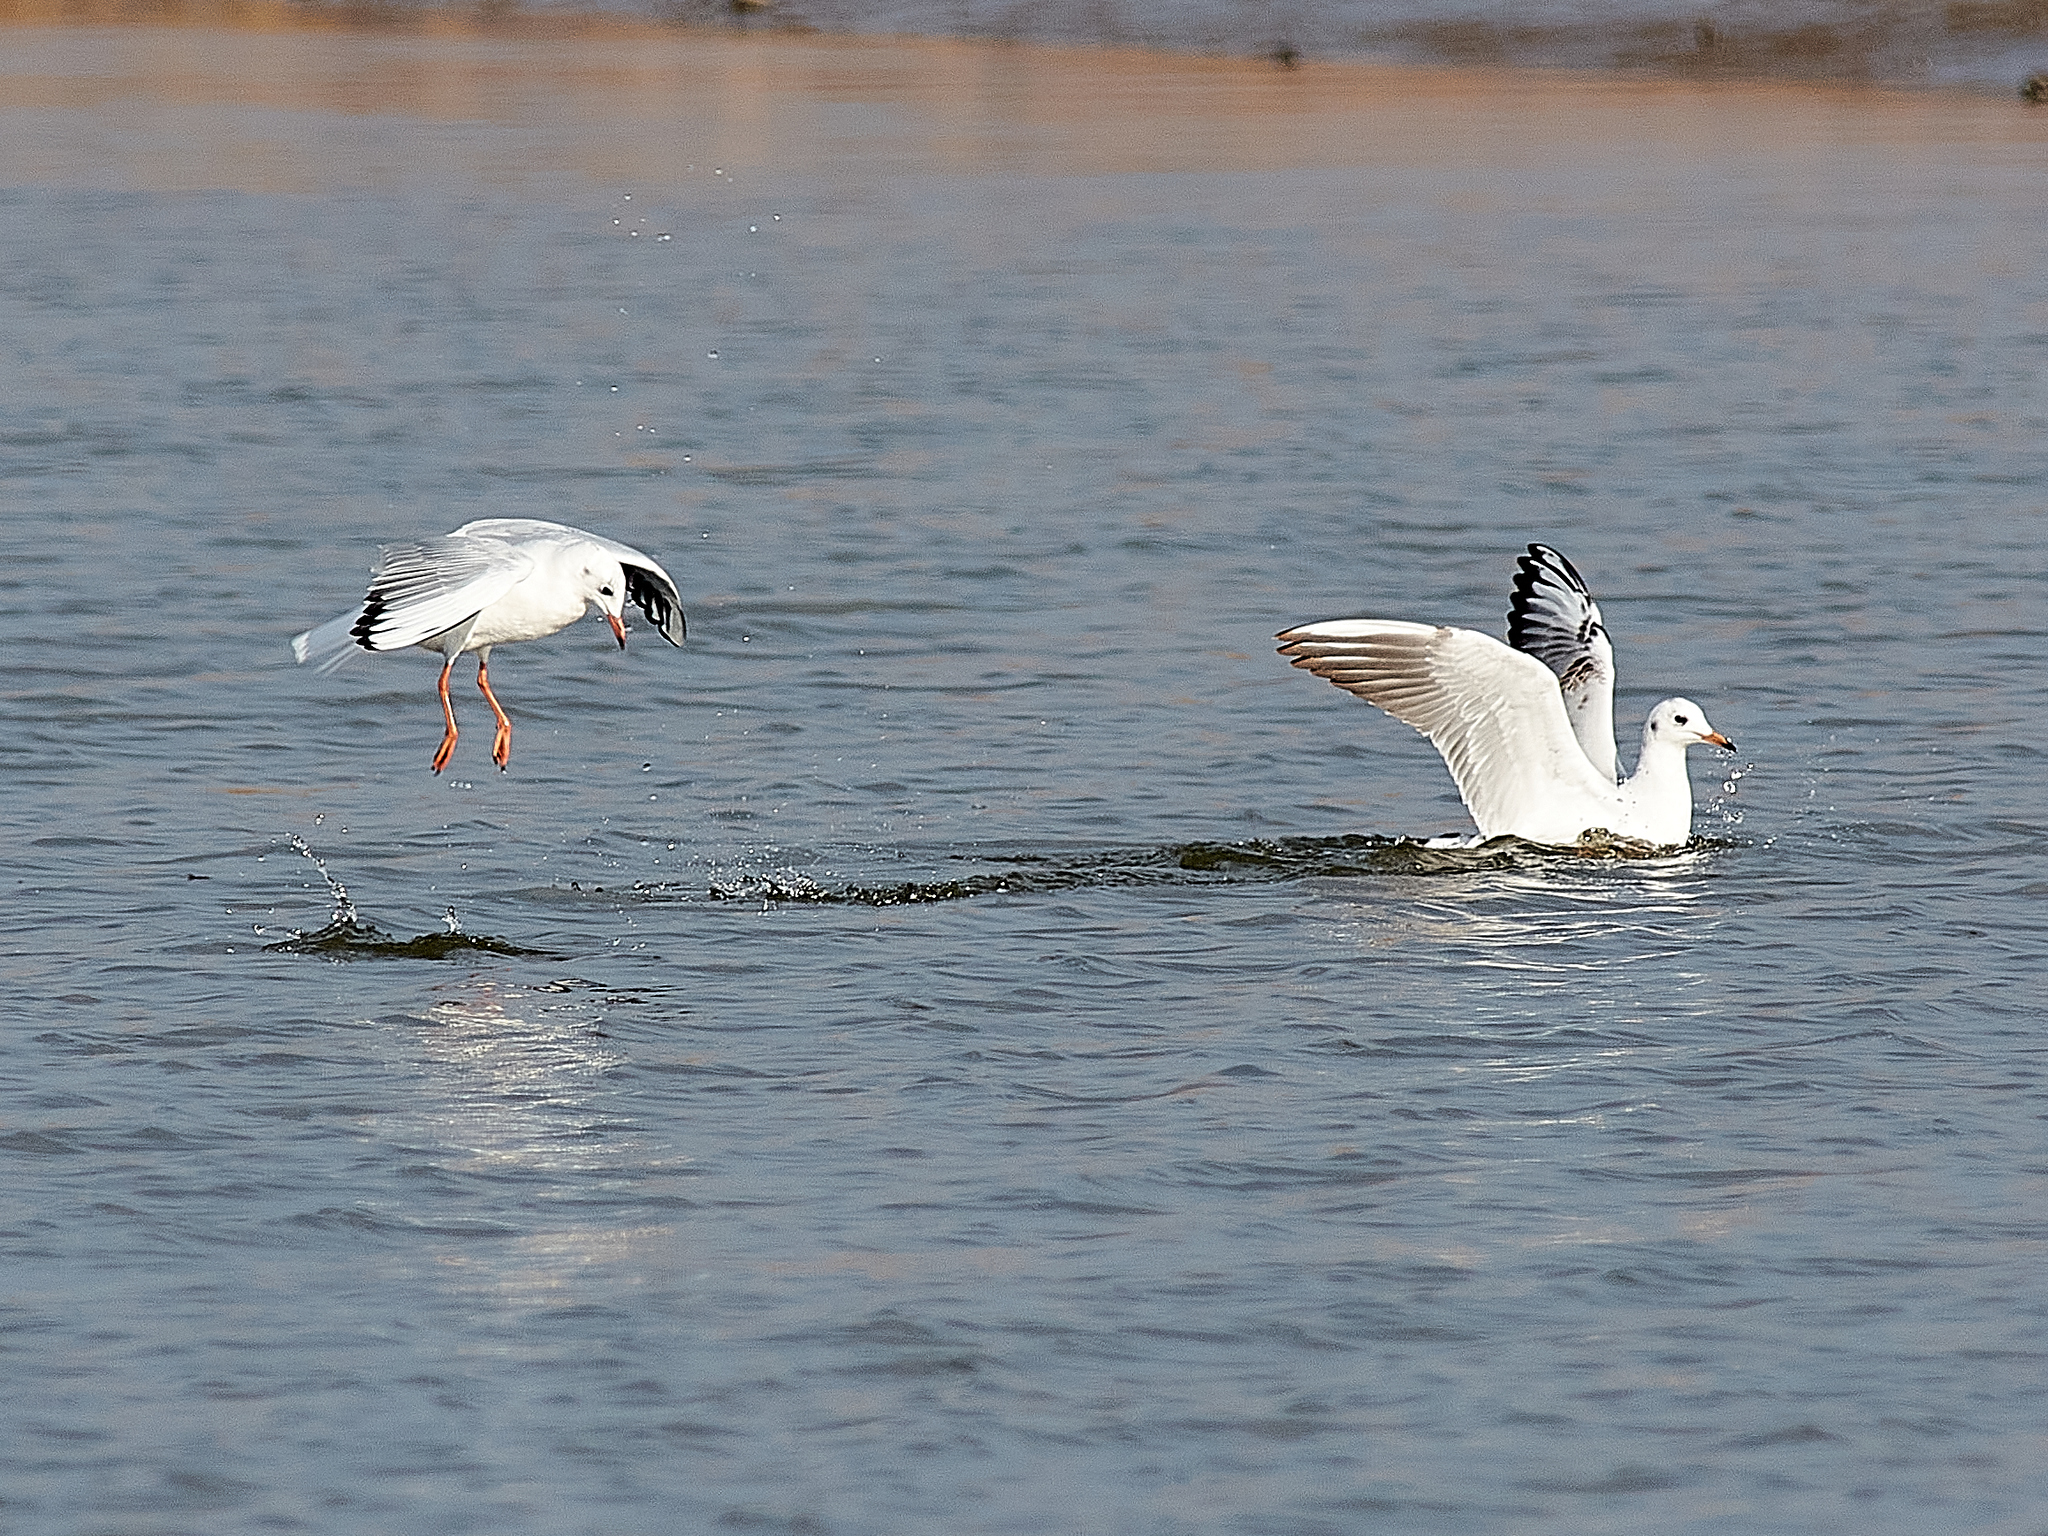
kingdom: Animalia
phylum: Chordata
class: Aves
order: Charadriiformes
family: Laridae
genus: Chroicocephalus
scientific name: Chroicocephalus ridibundus
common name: Black-headed gull
